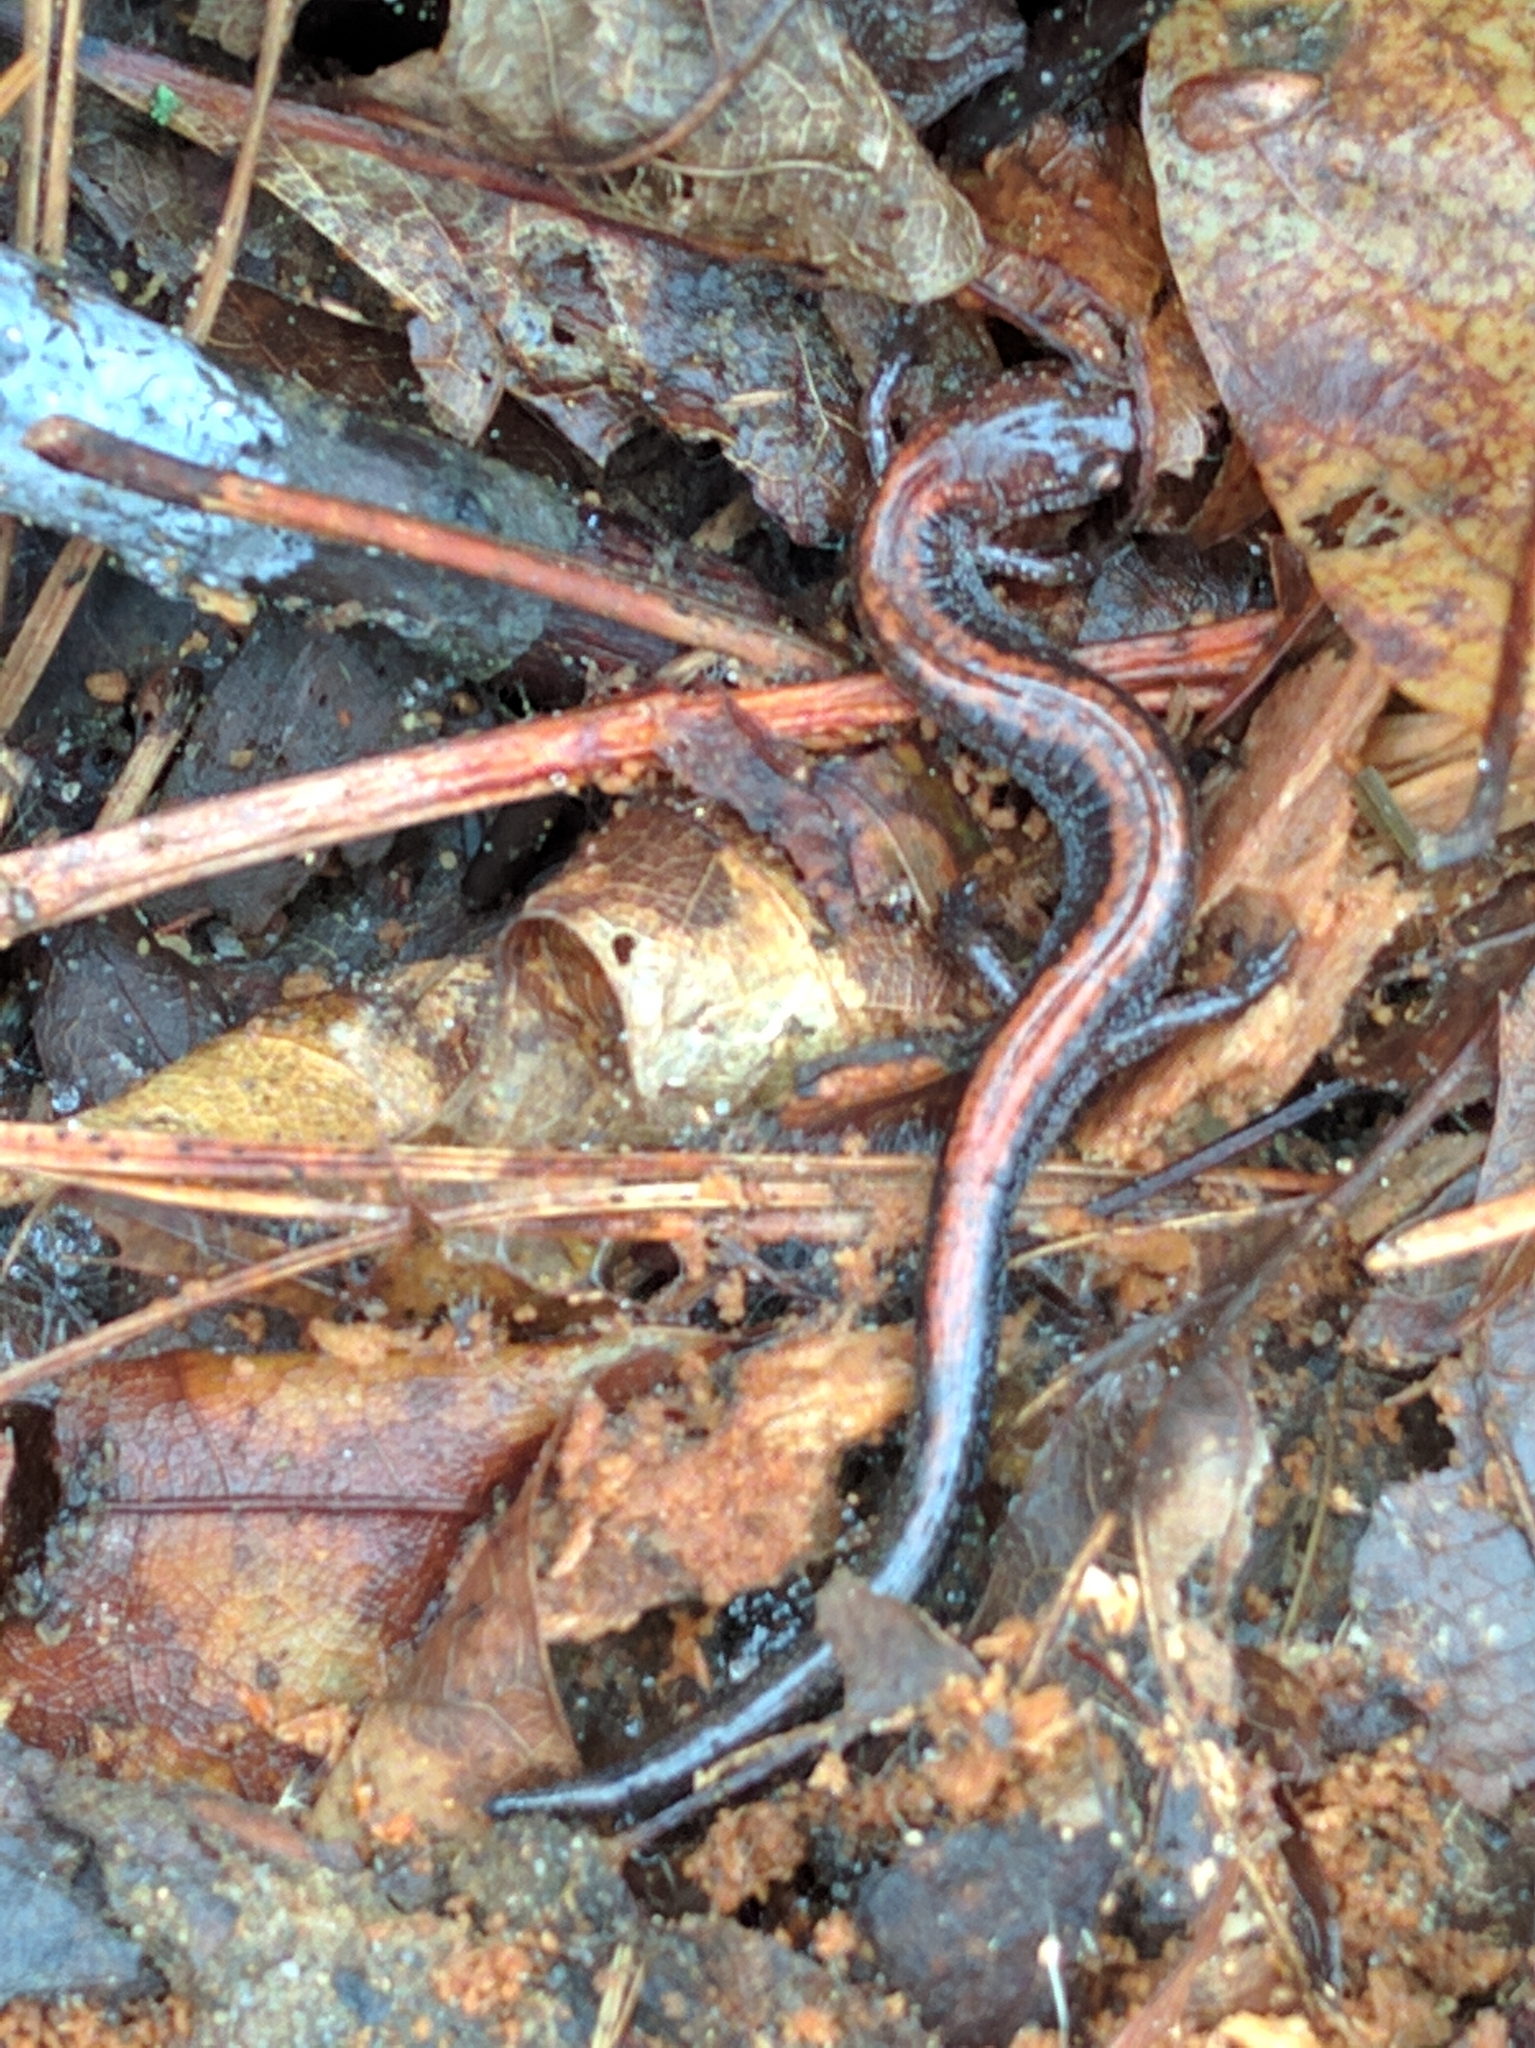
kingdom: Animalia
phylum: Chordata
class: Amphibia
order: Caudata
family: Plethodontidae
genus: Plethodon
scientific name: Plethodon cinereus
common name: Redback salamander
